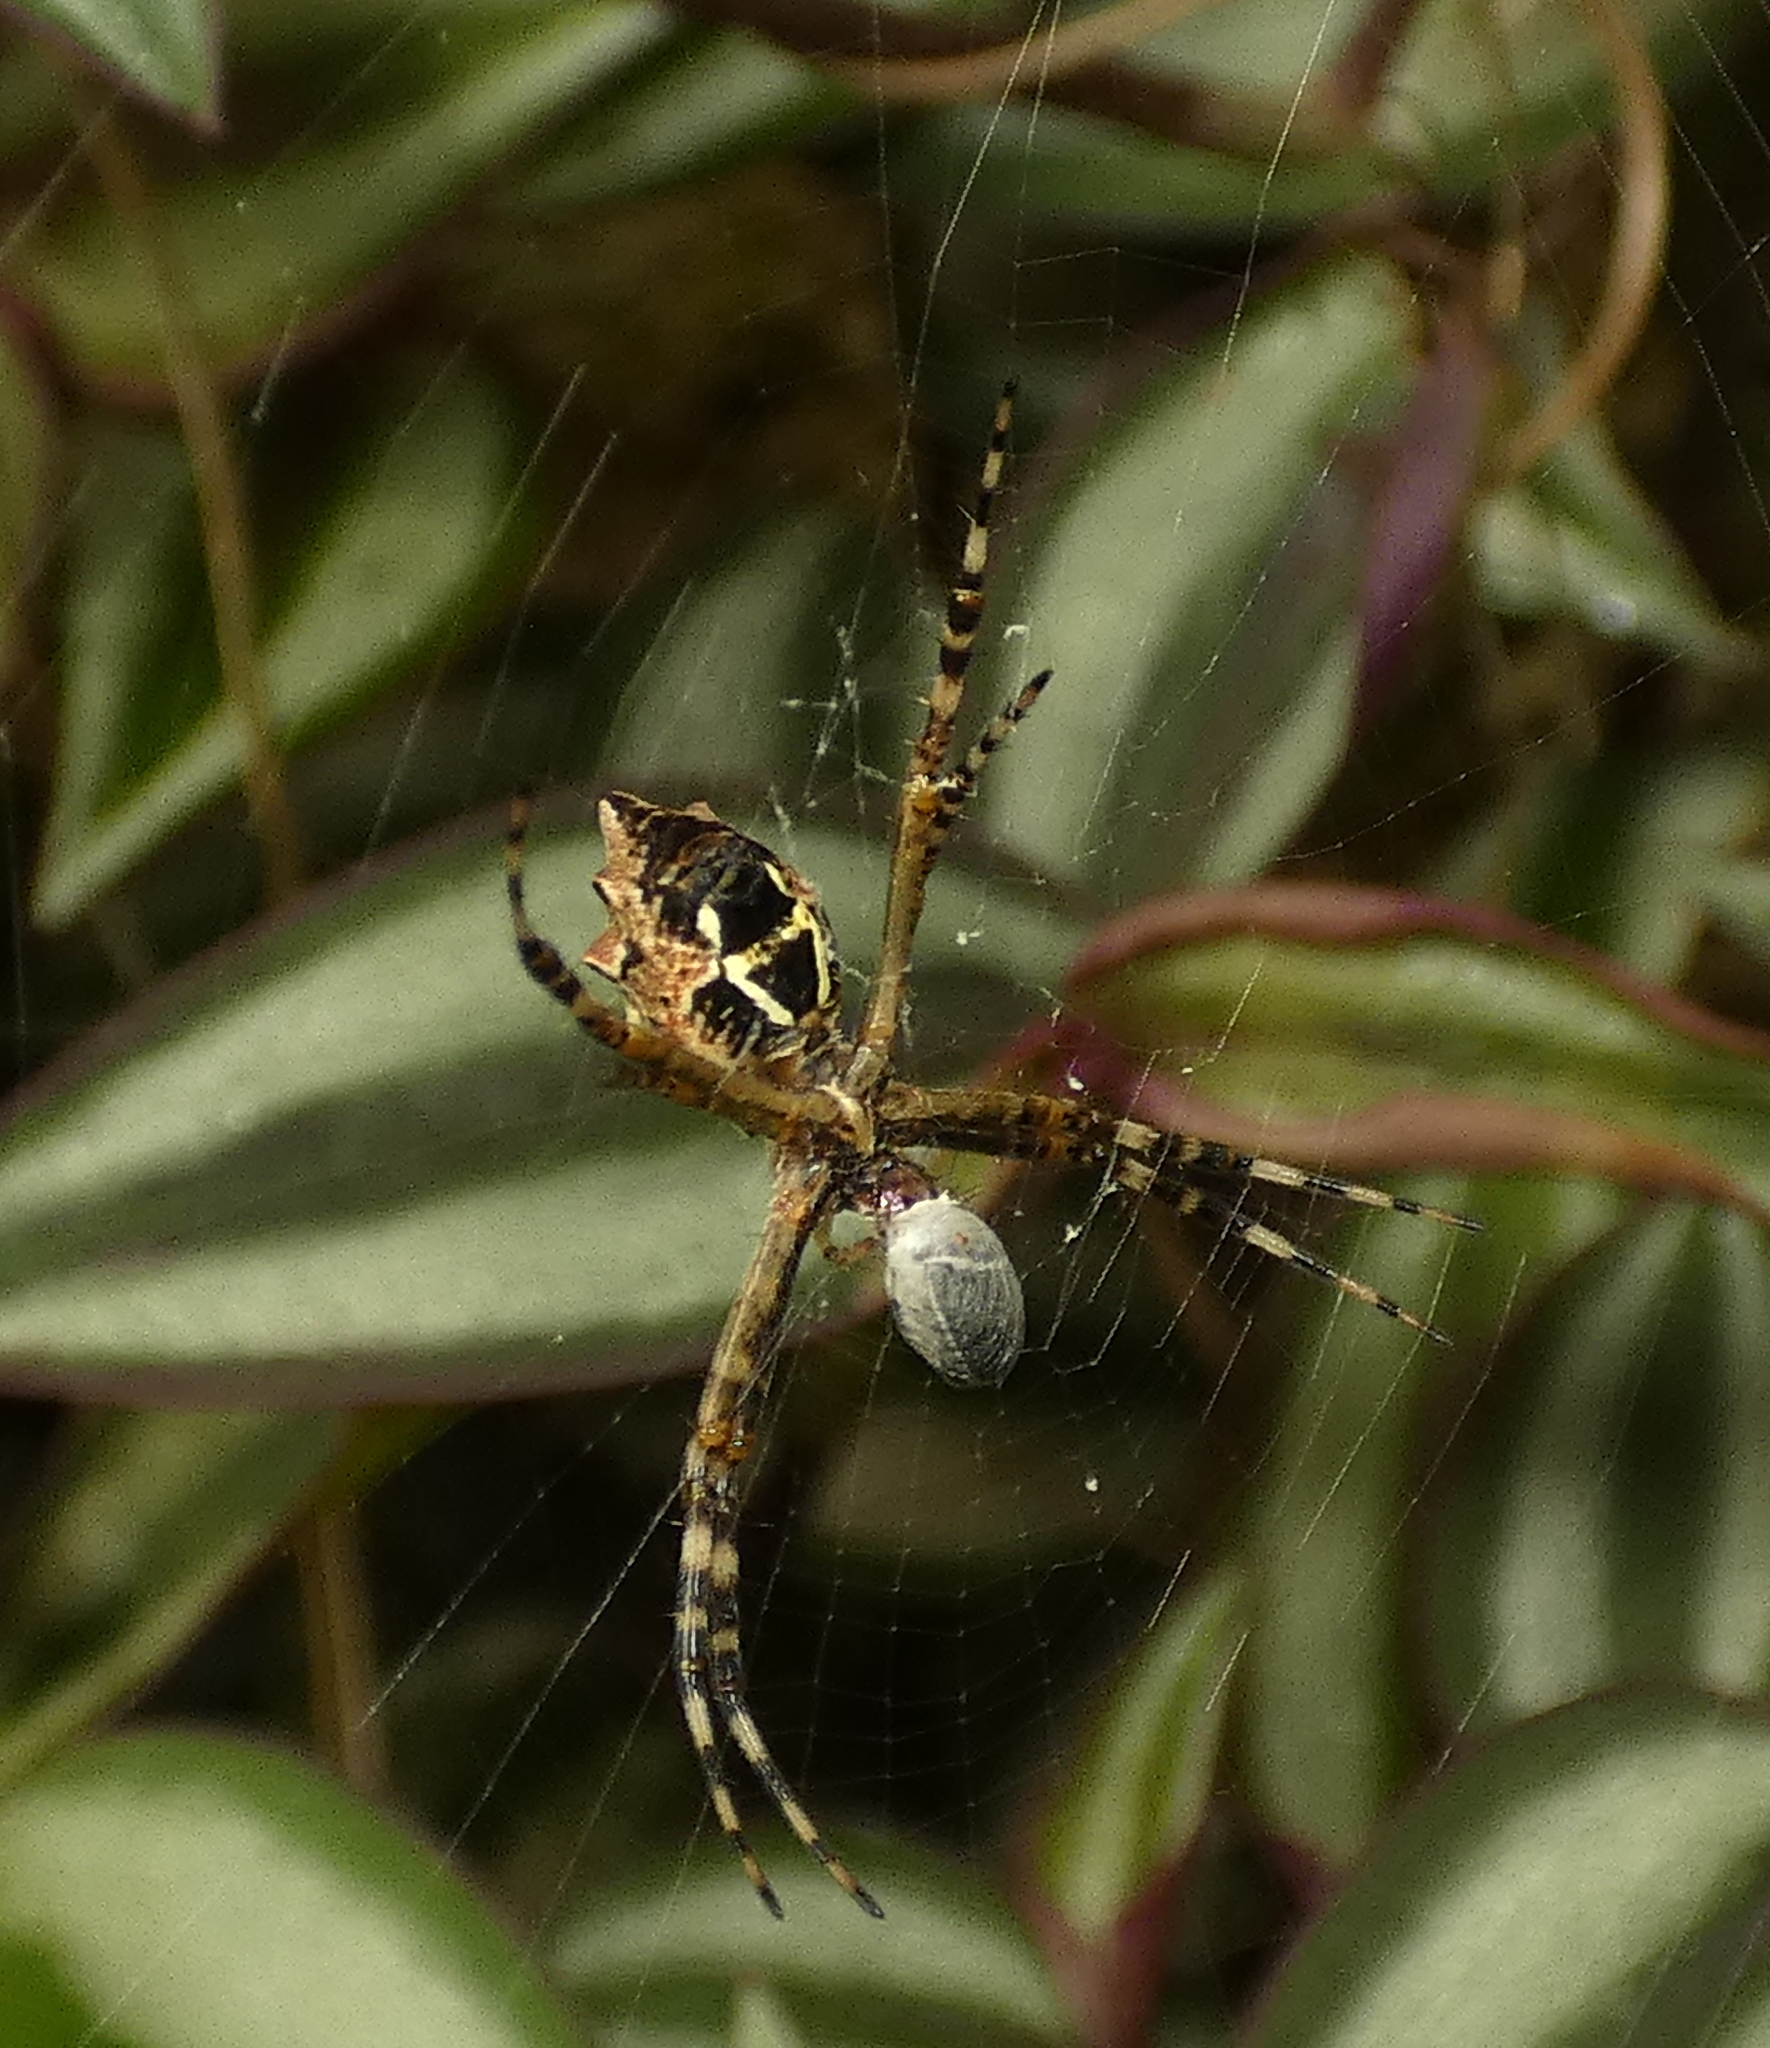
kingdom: Animalia
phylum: Arthropoda
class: Arachnida
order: Araneae
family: Araneidae
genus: Argiope
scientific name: Argiope argentata
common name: Orb weavers
